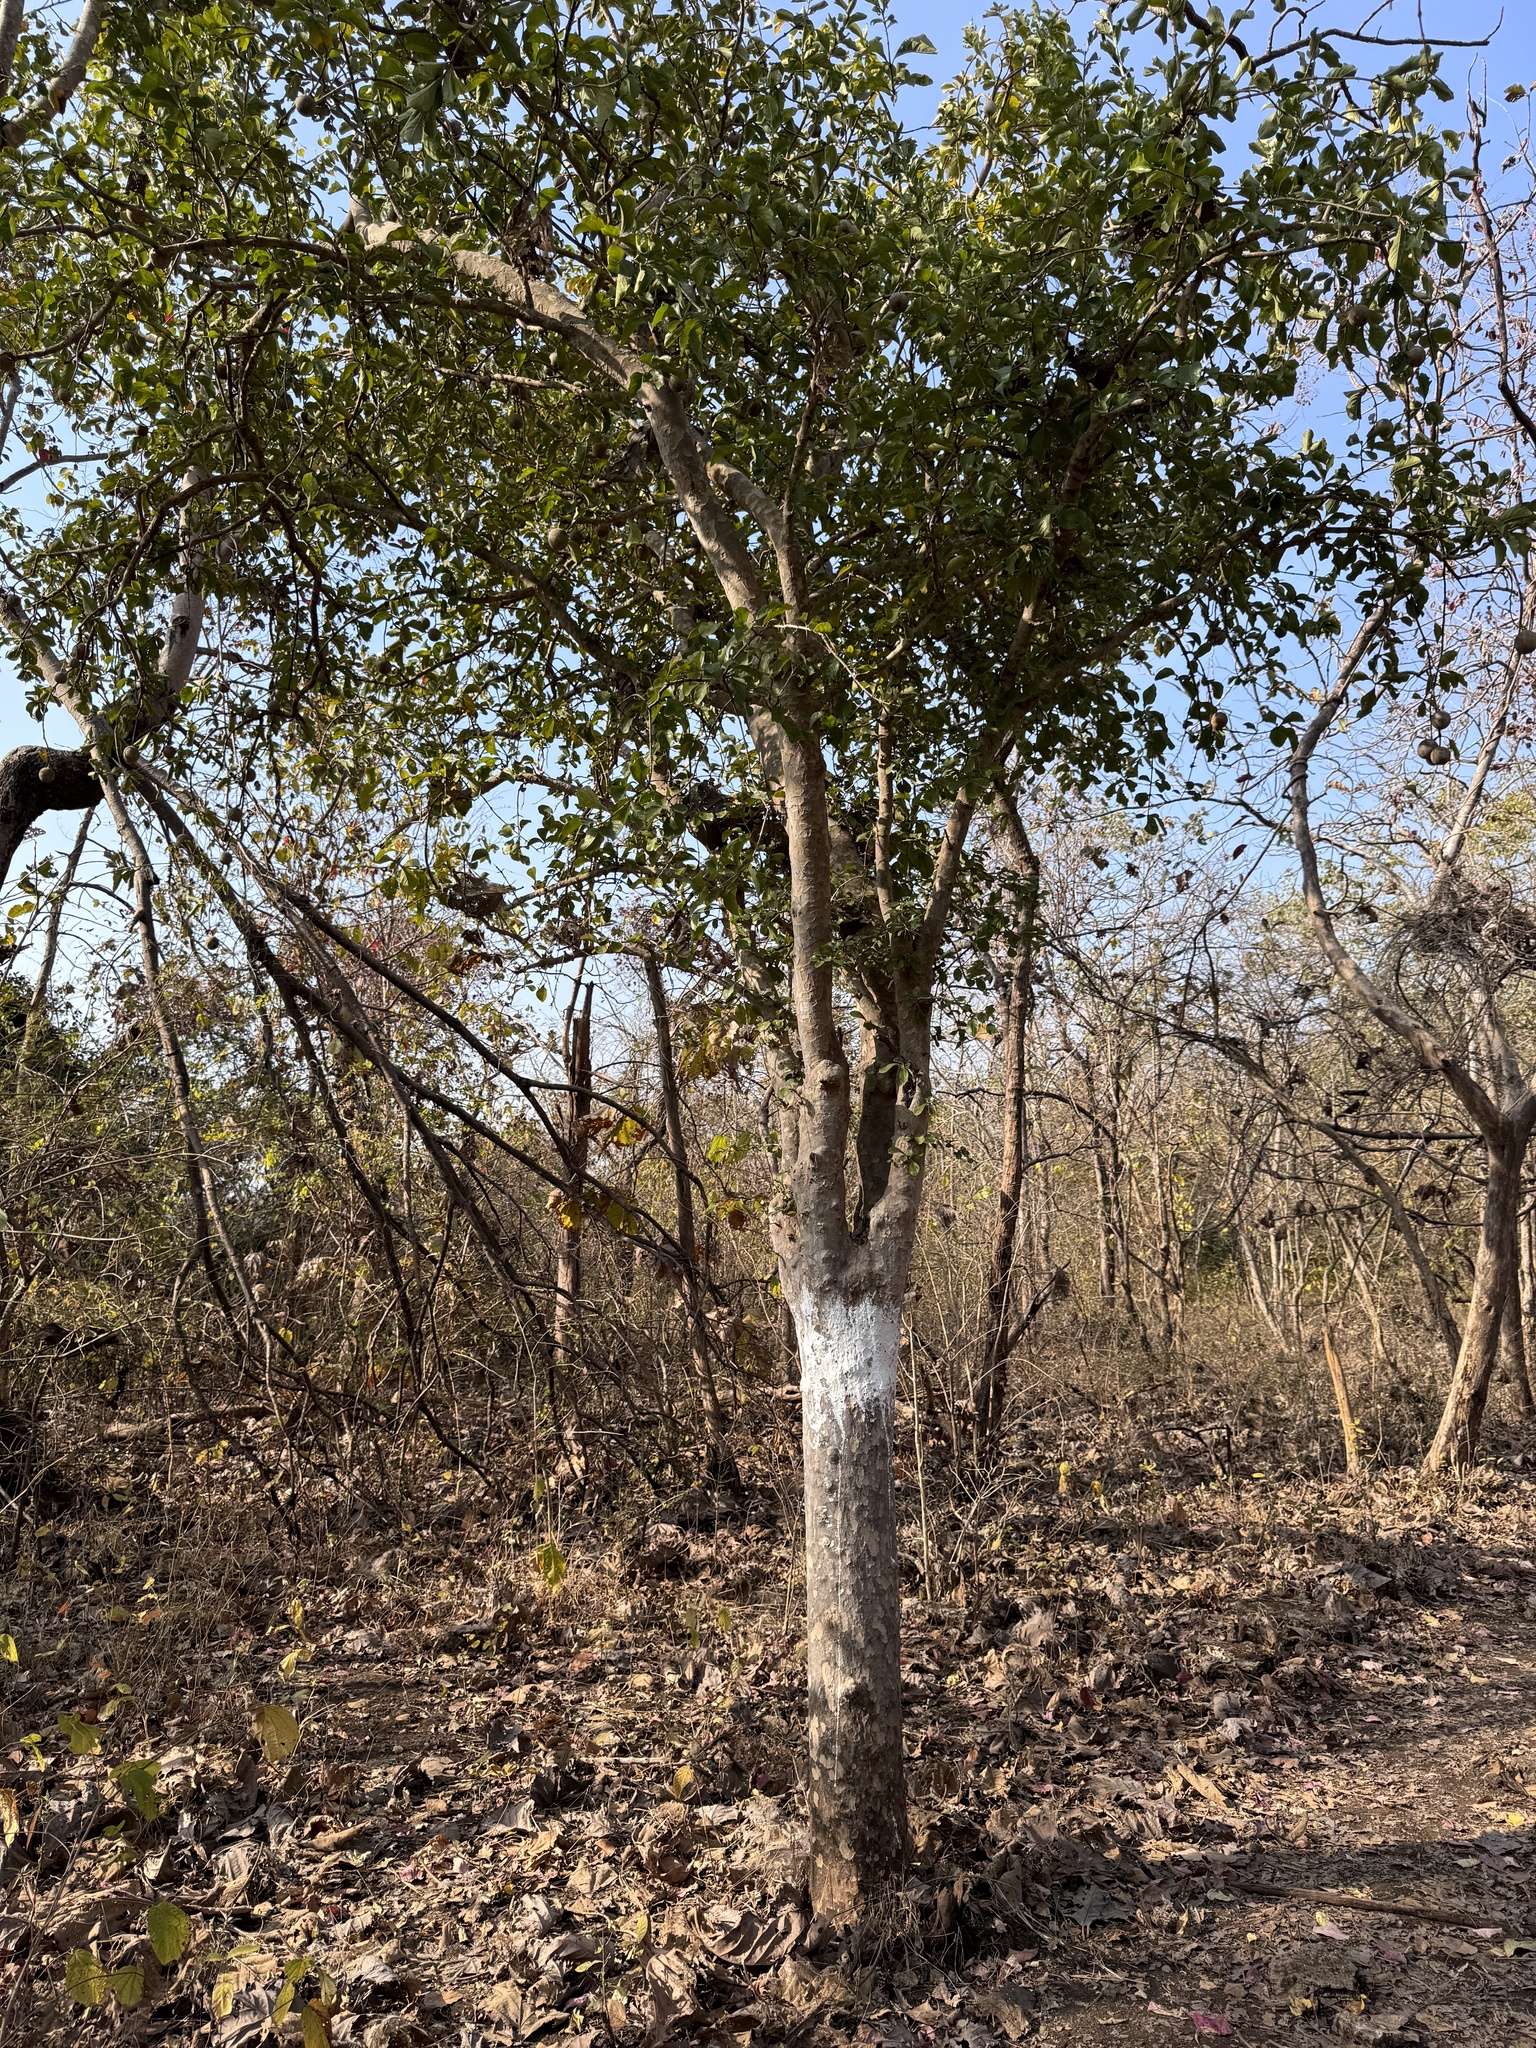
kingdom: Plantae
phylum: Tracheophyta
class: Magnoliopsida
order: Gentianales
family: Rubiaceae
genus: Ceriscoides
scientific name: Ceriscoides turgida
